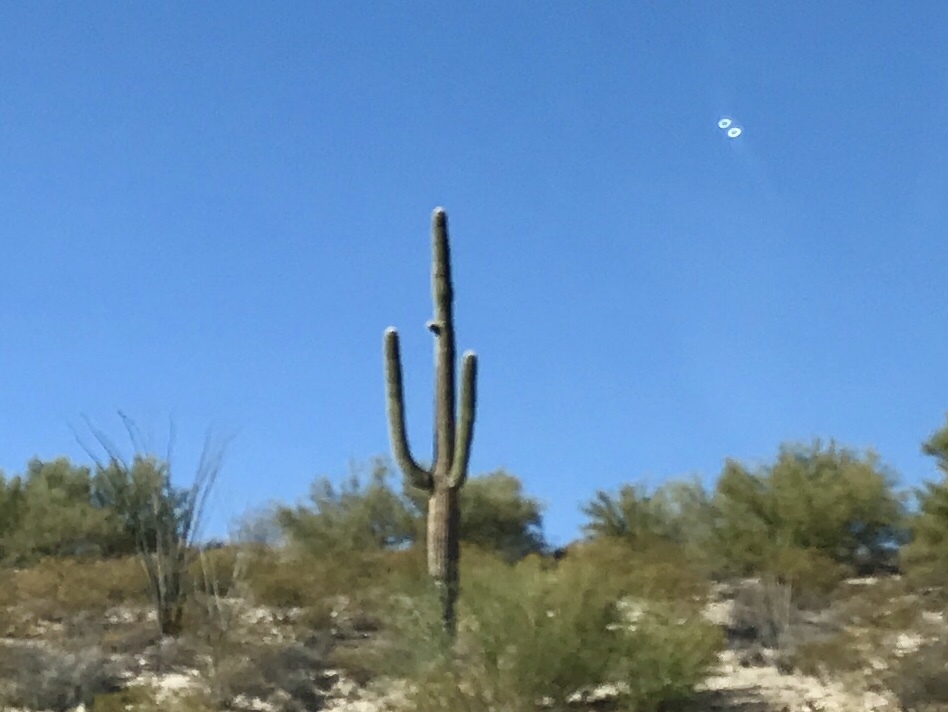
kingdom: Plantae
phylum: Tracheophyta
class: Magnoliopsida
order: Caryophyllales
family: Cactaceae
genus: Carnegiea
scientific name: Carnegiea gigantea
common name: Saguaro
